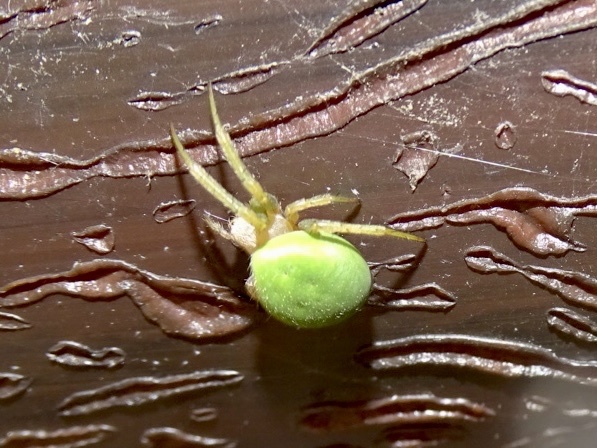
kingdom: Animalia
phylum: Arthropoda
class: Arachnida
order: Araneae
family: Araneidae
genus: Neoscona
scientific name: Neoscona scylloides
